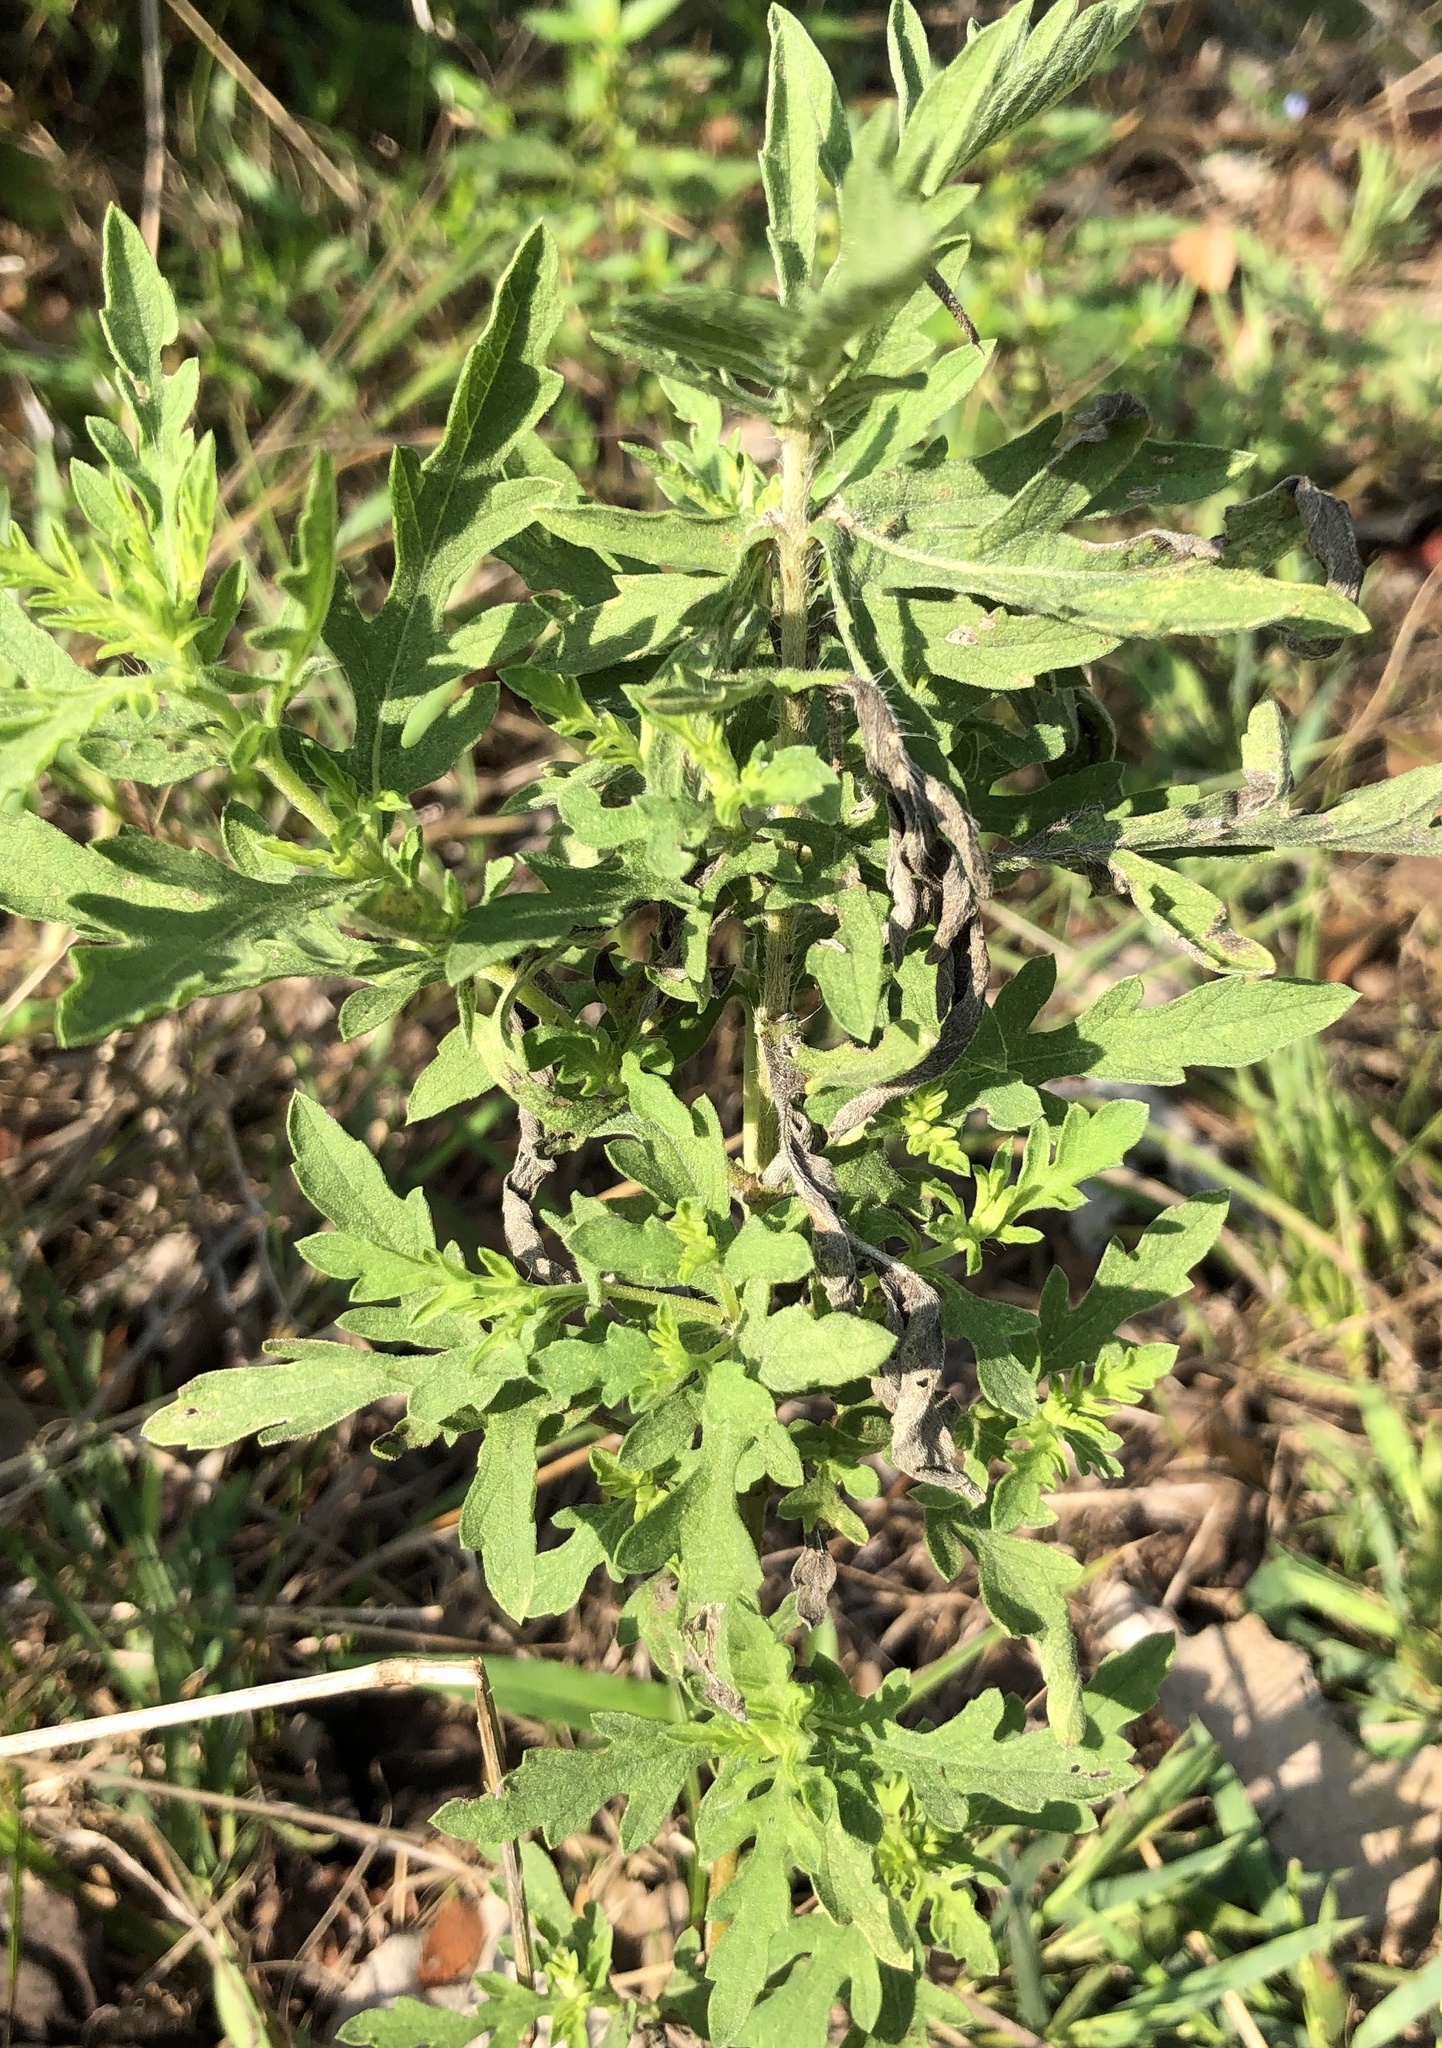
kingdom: Plantae
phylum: Tracheophyta
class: Magnoliopsida
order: Asterales
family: Asteraceae
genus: Ambrosia
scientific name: Ambrosia psilostachya
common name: Perennial ragweed
